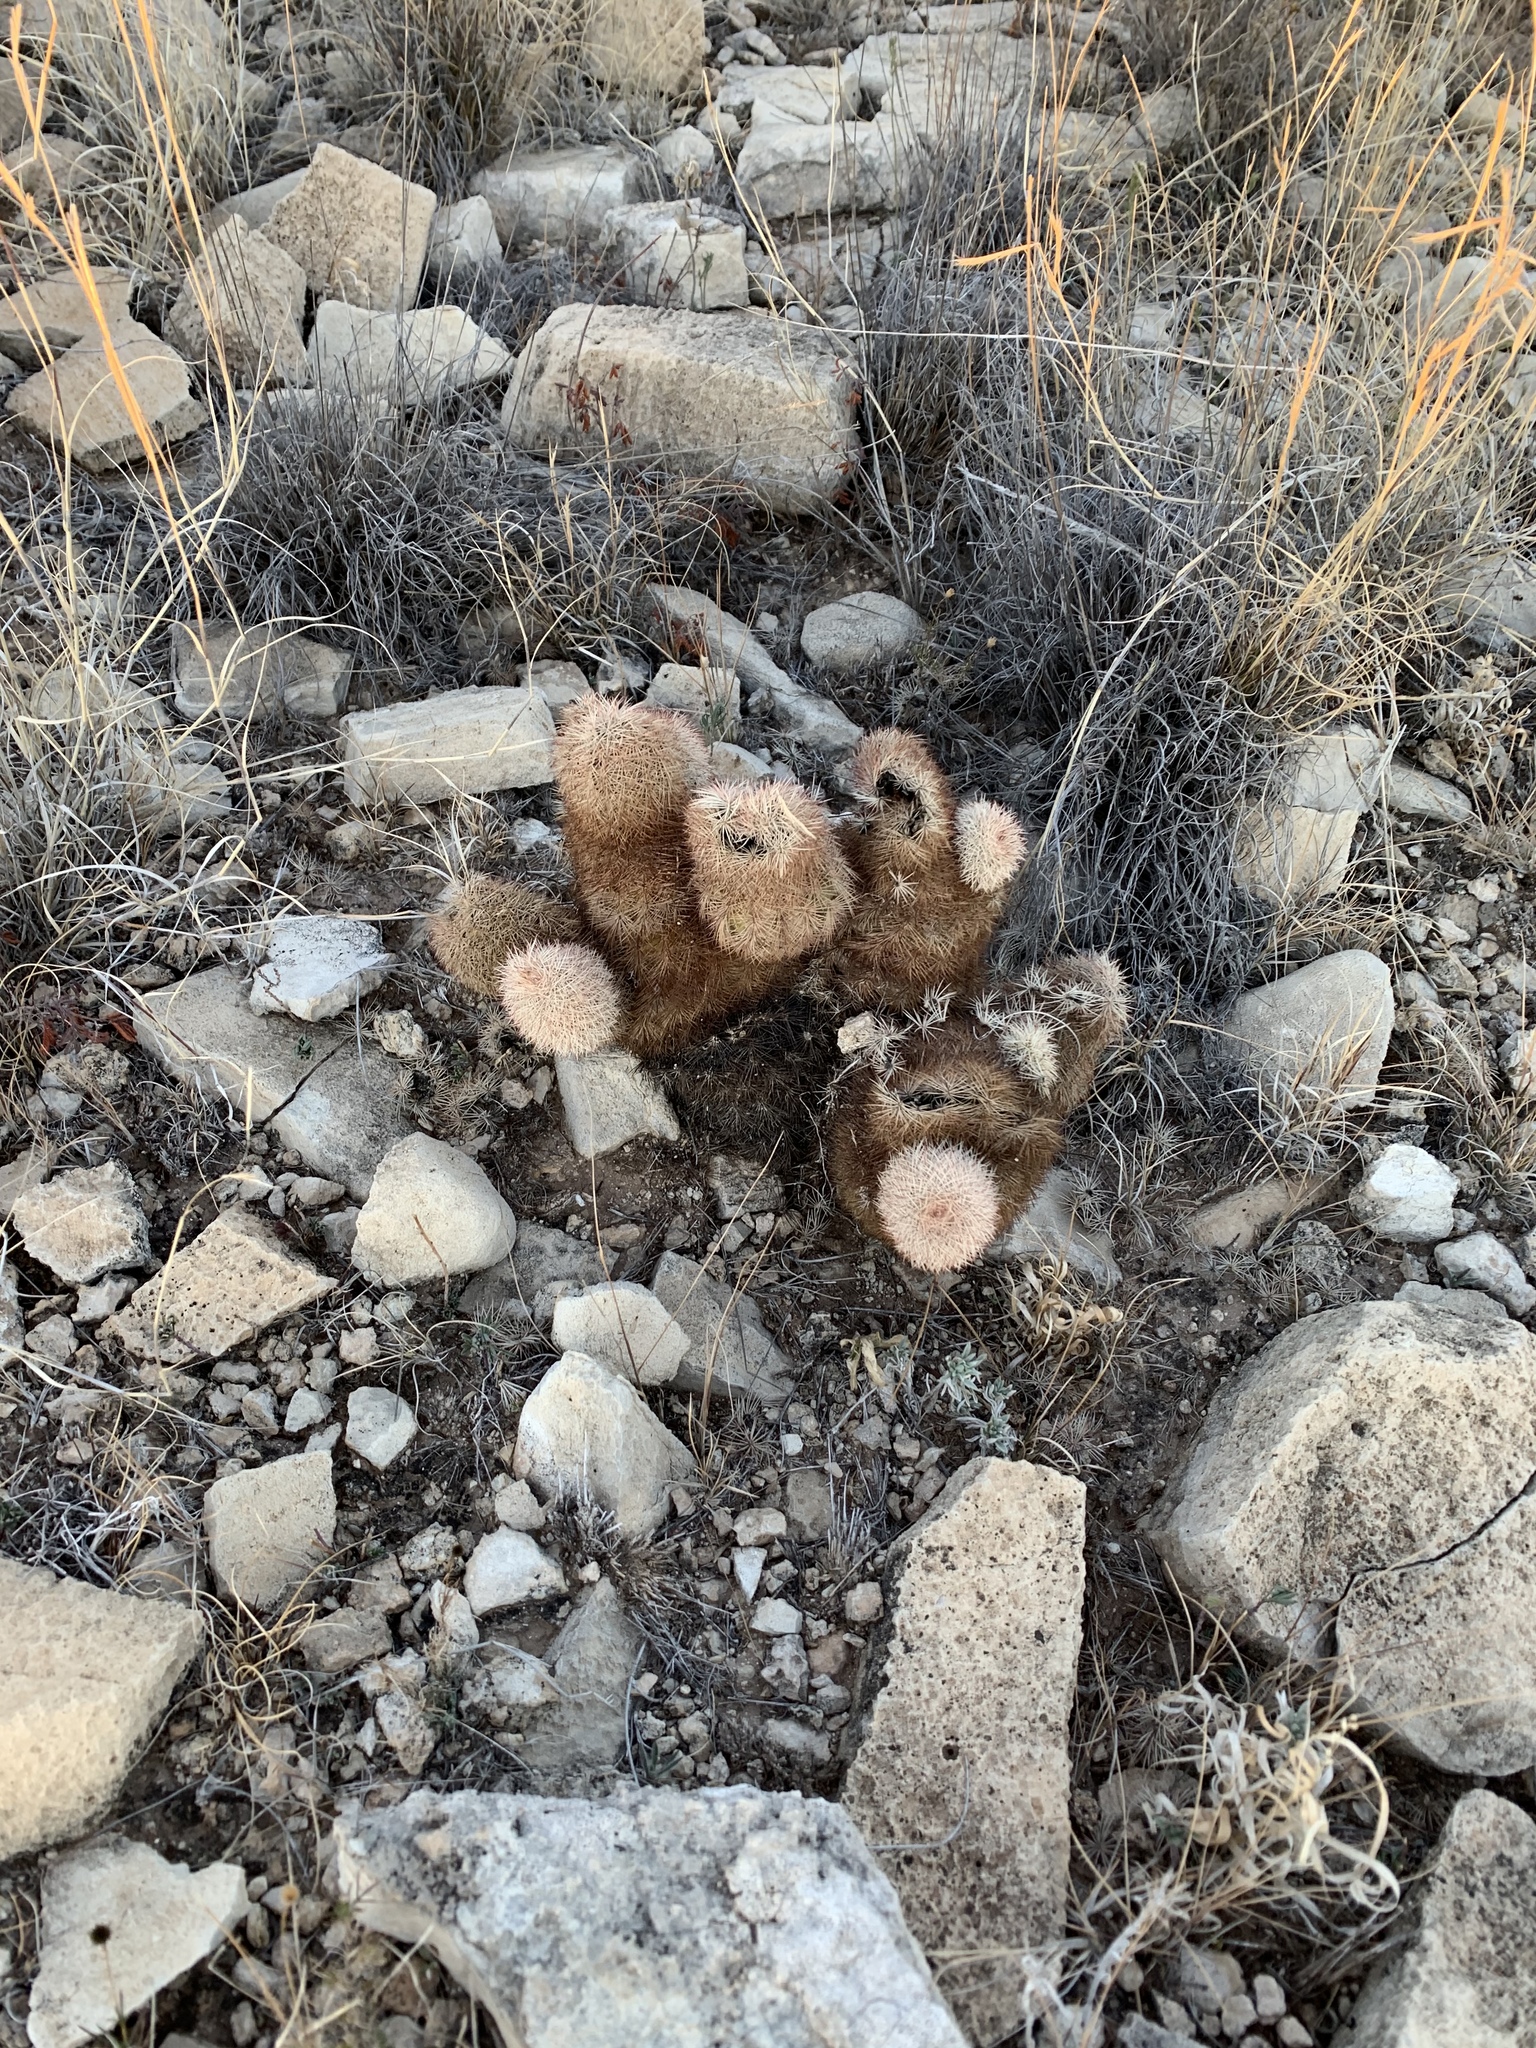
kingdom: Plantae
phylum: Tracheophyta
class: Magnoliopsida
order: Caryophyllales
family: Cactaceae
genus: Echinocereus
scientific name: Echinocereus dasyacanthus
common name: Spiny hedgehog cactus
